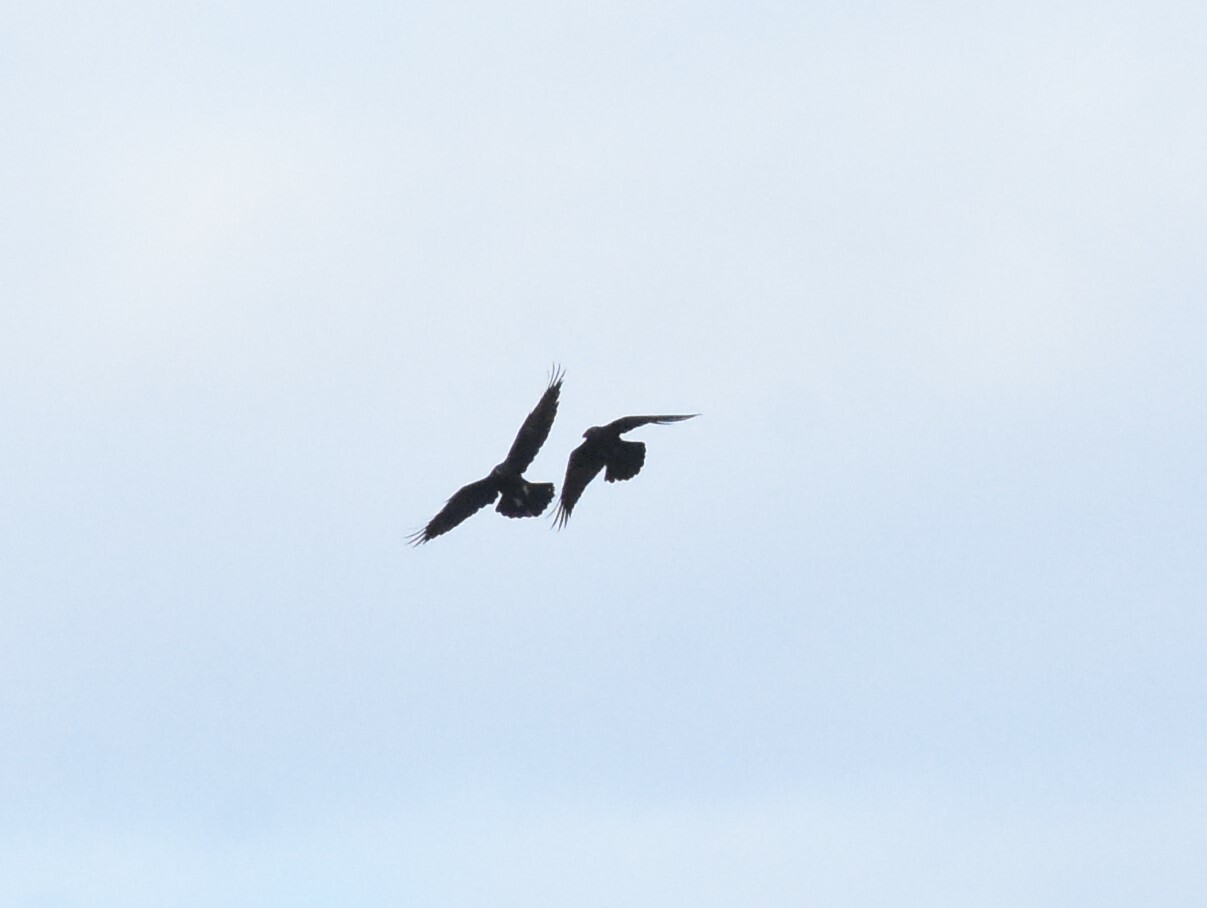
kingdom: Animalia
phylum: Chordata
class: Aves
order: Passeriformes
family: Corvidae
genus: Corvus
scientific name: Corvus corax
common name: Common raven
